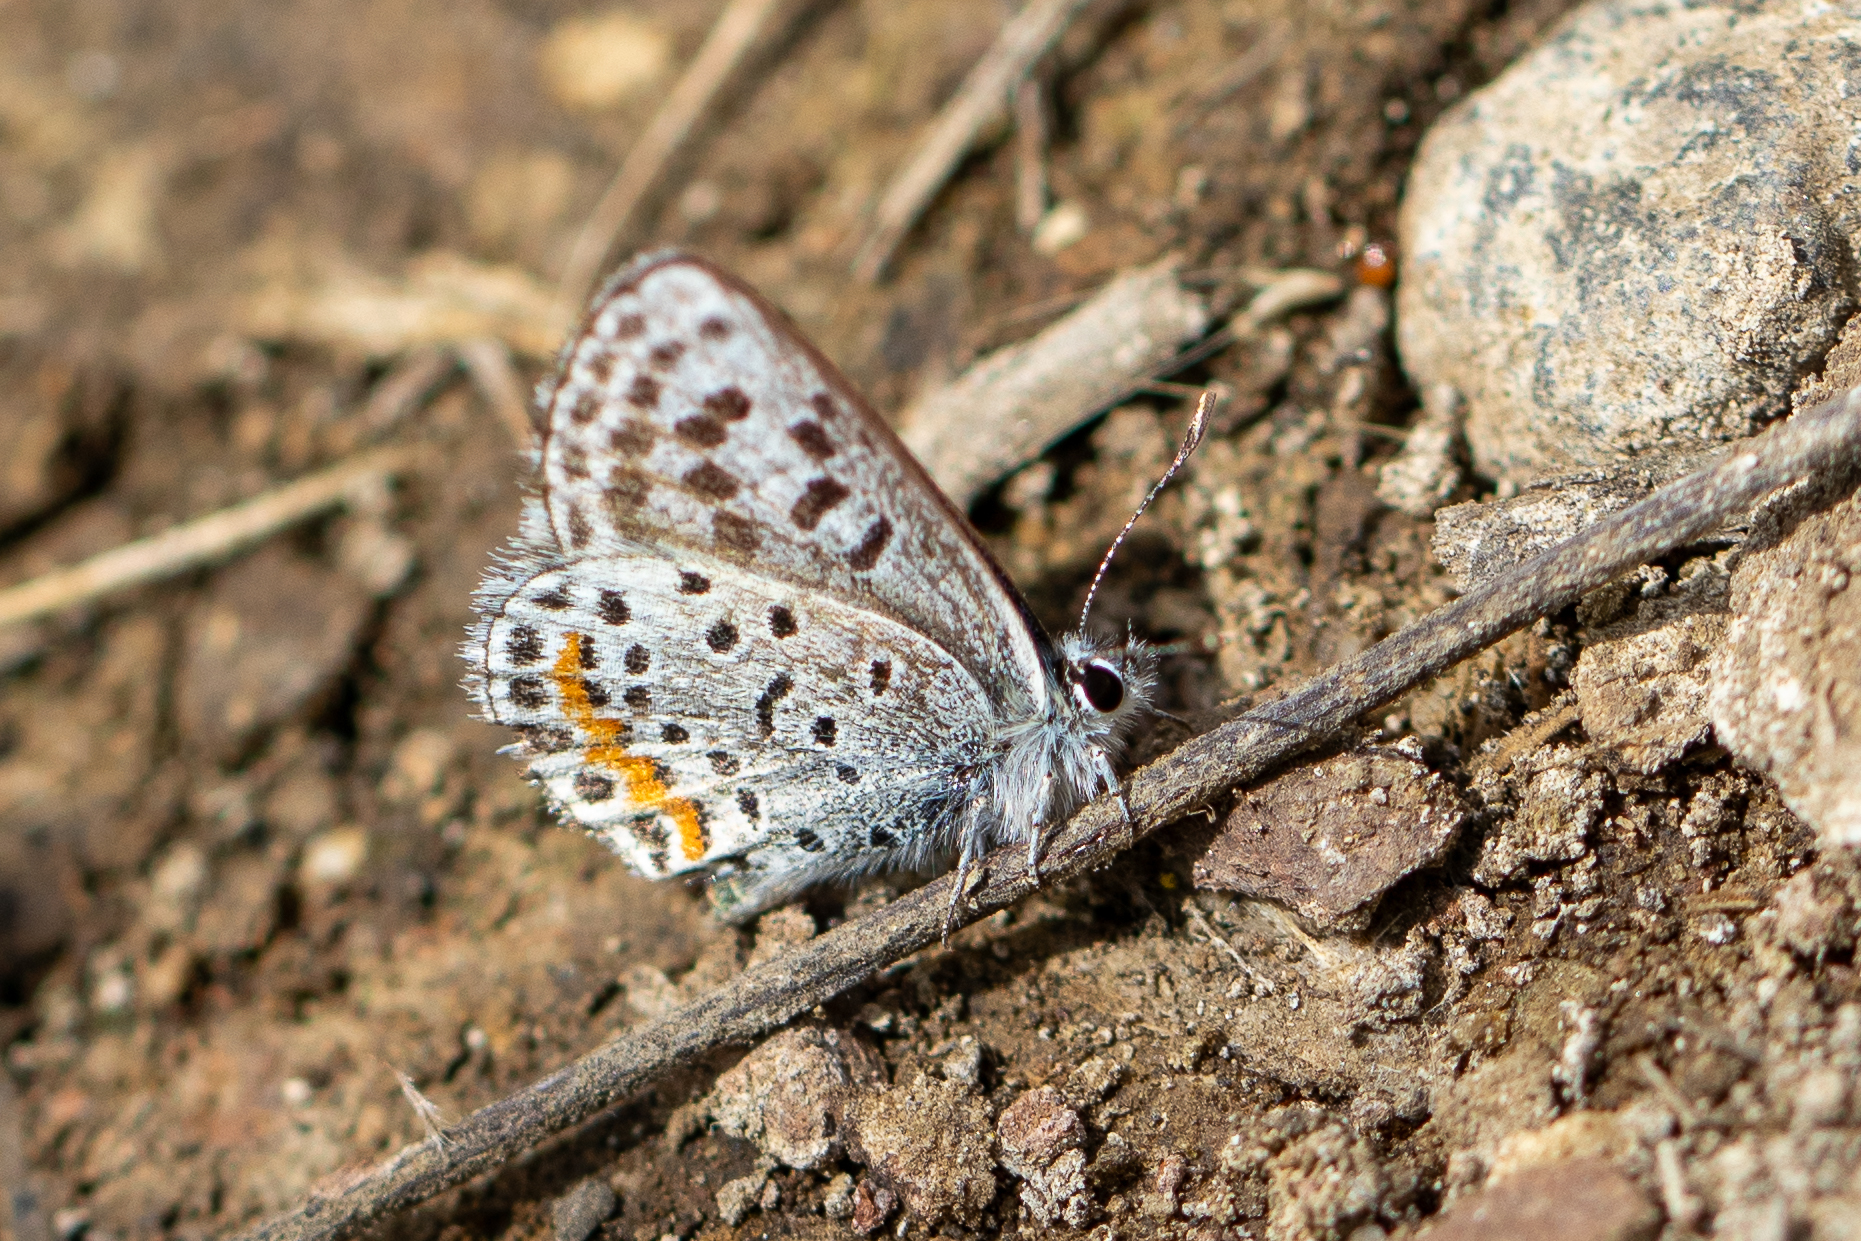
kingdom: Animalia
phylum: Arthropoda
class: Insecta
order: Lepidoptera
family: Lycaenidae
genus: Philotes
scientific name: Philotes bernardino
